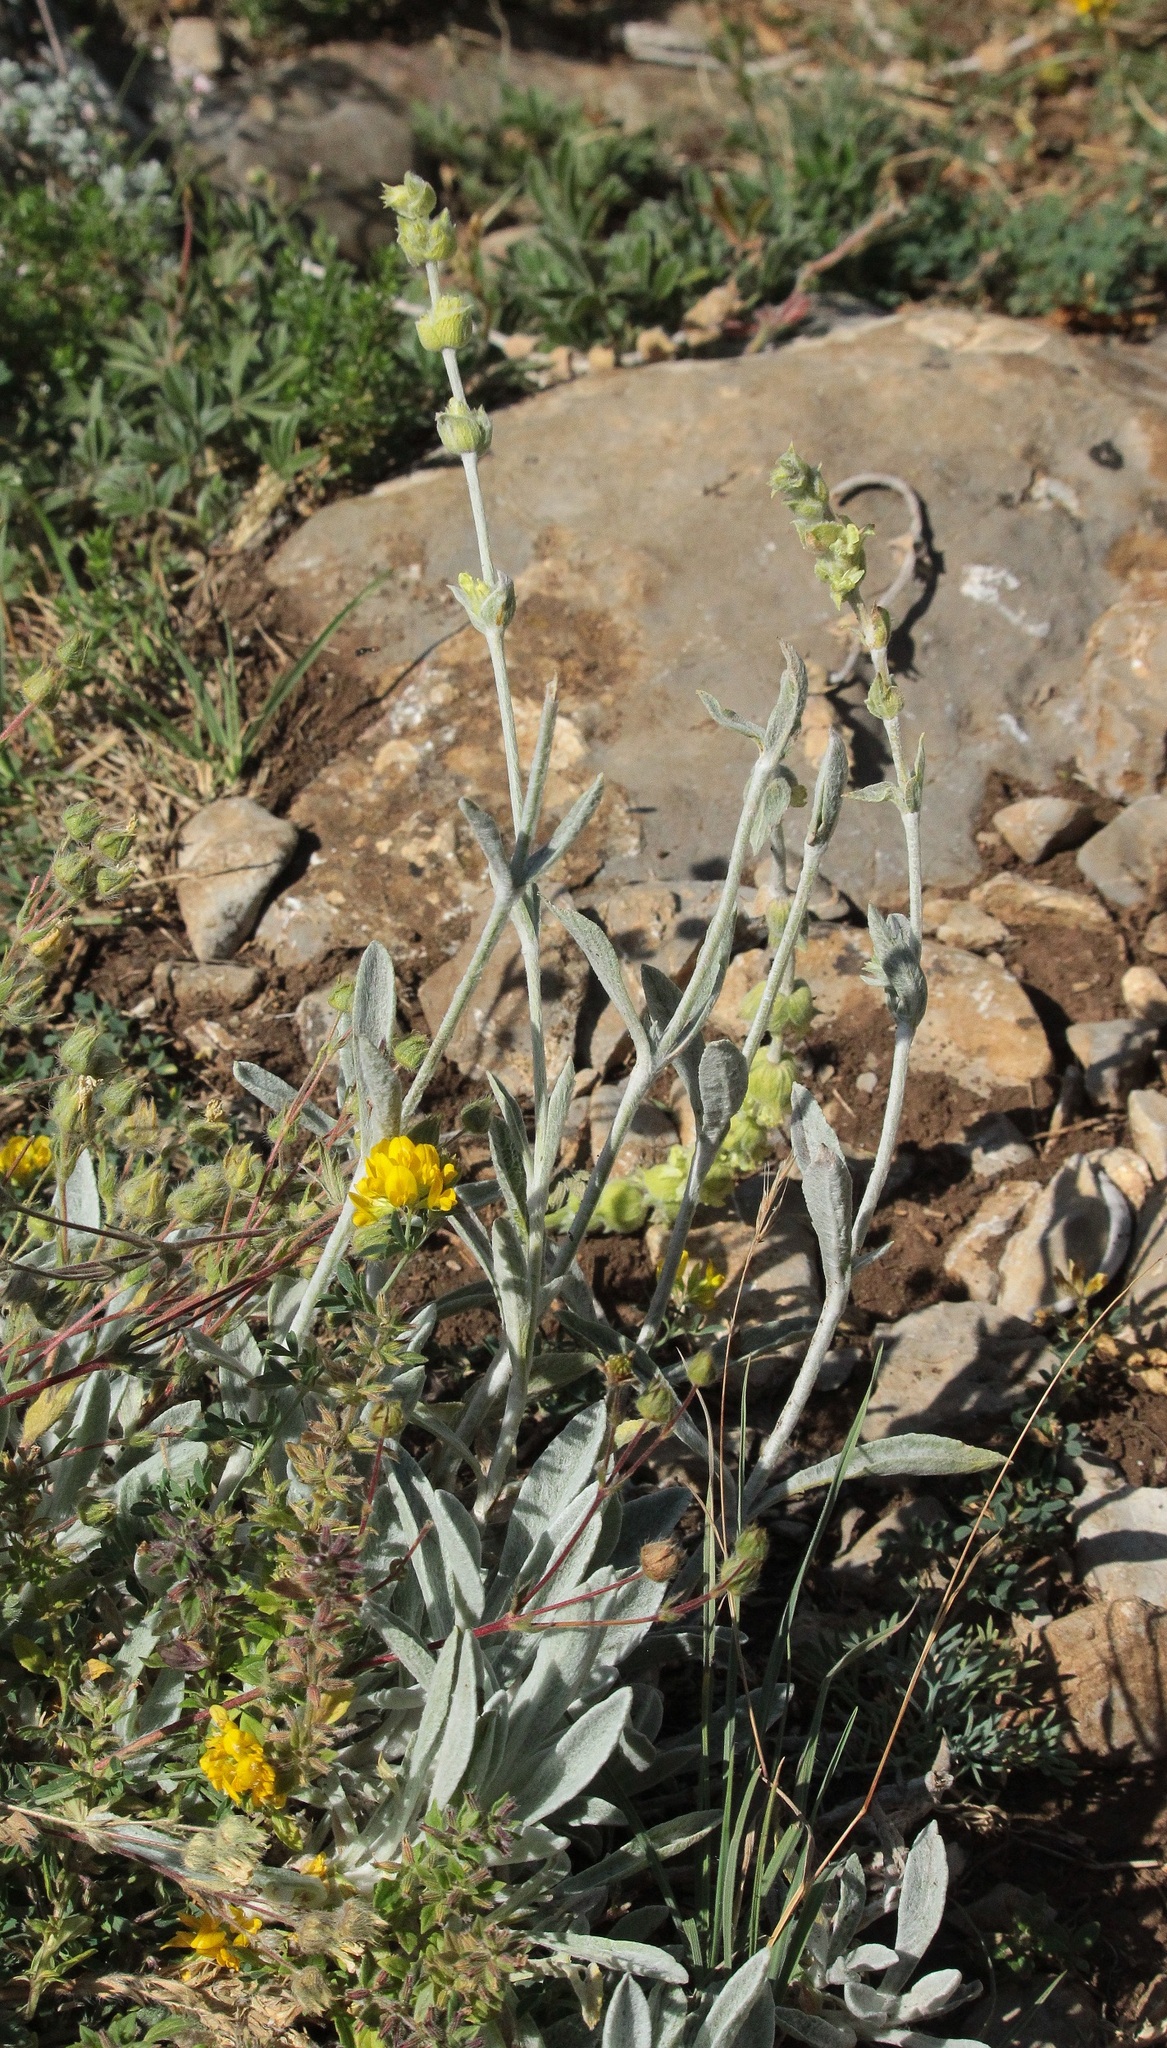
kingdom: Plantae
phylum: Tracheophyta
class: Magnoliopsida
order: Lamiales
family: Lamiaceae
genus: Sideritis
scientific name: Sideritis taurica
